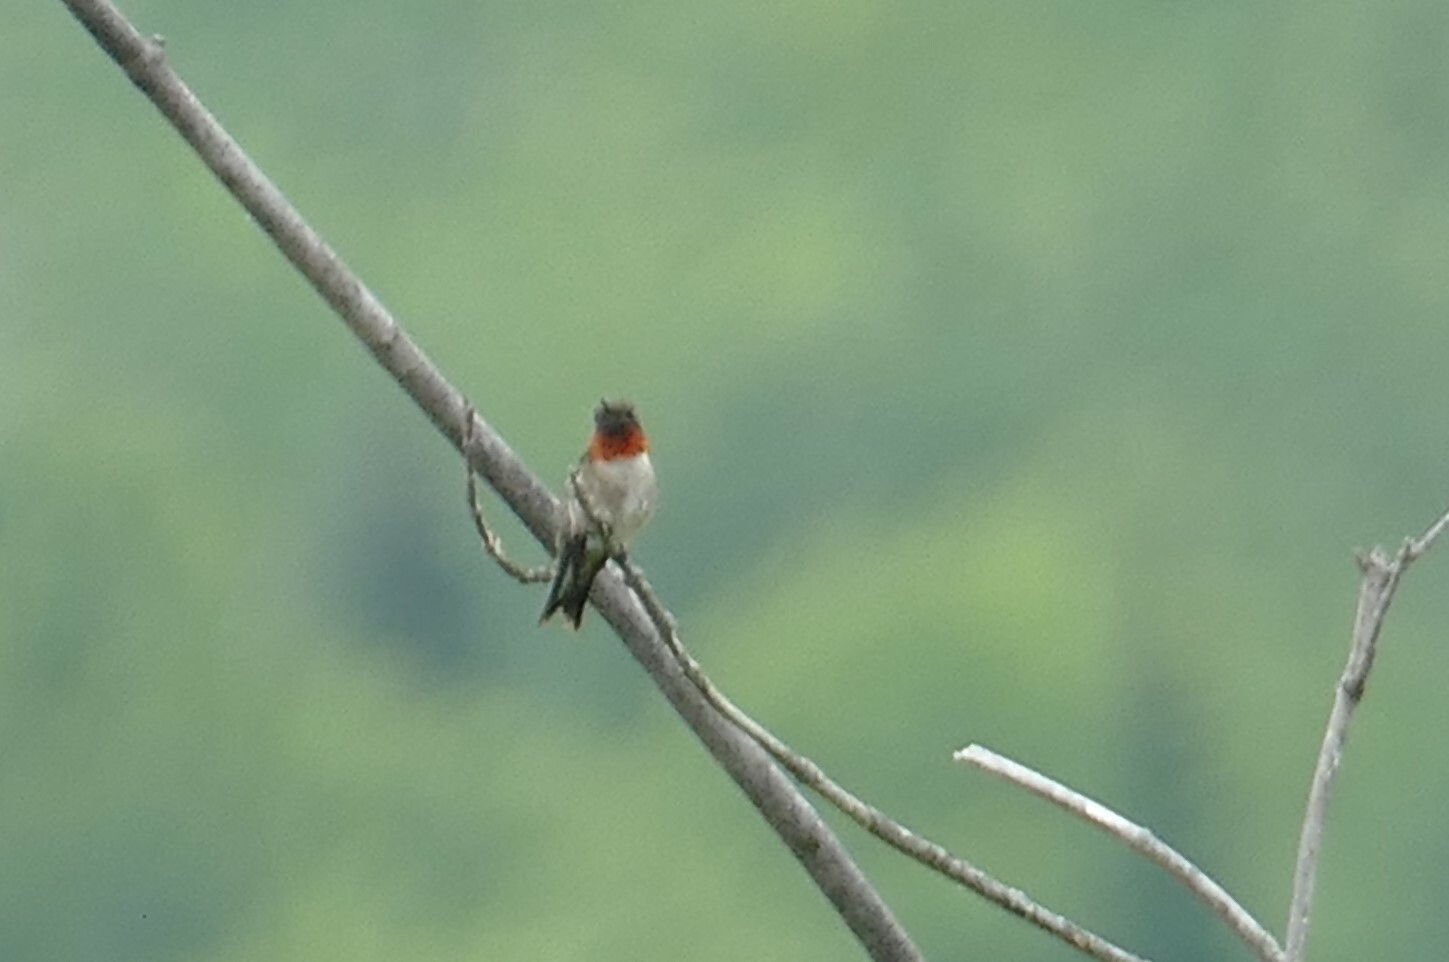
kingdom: Animalia
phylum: Chordata
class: Aves
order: Apodiformes
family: Trochilidae
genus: Archilochus
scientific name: Archilochus colubris
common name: Ruby-throated hummingbird
